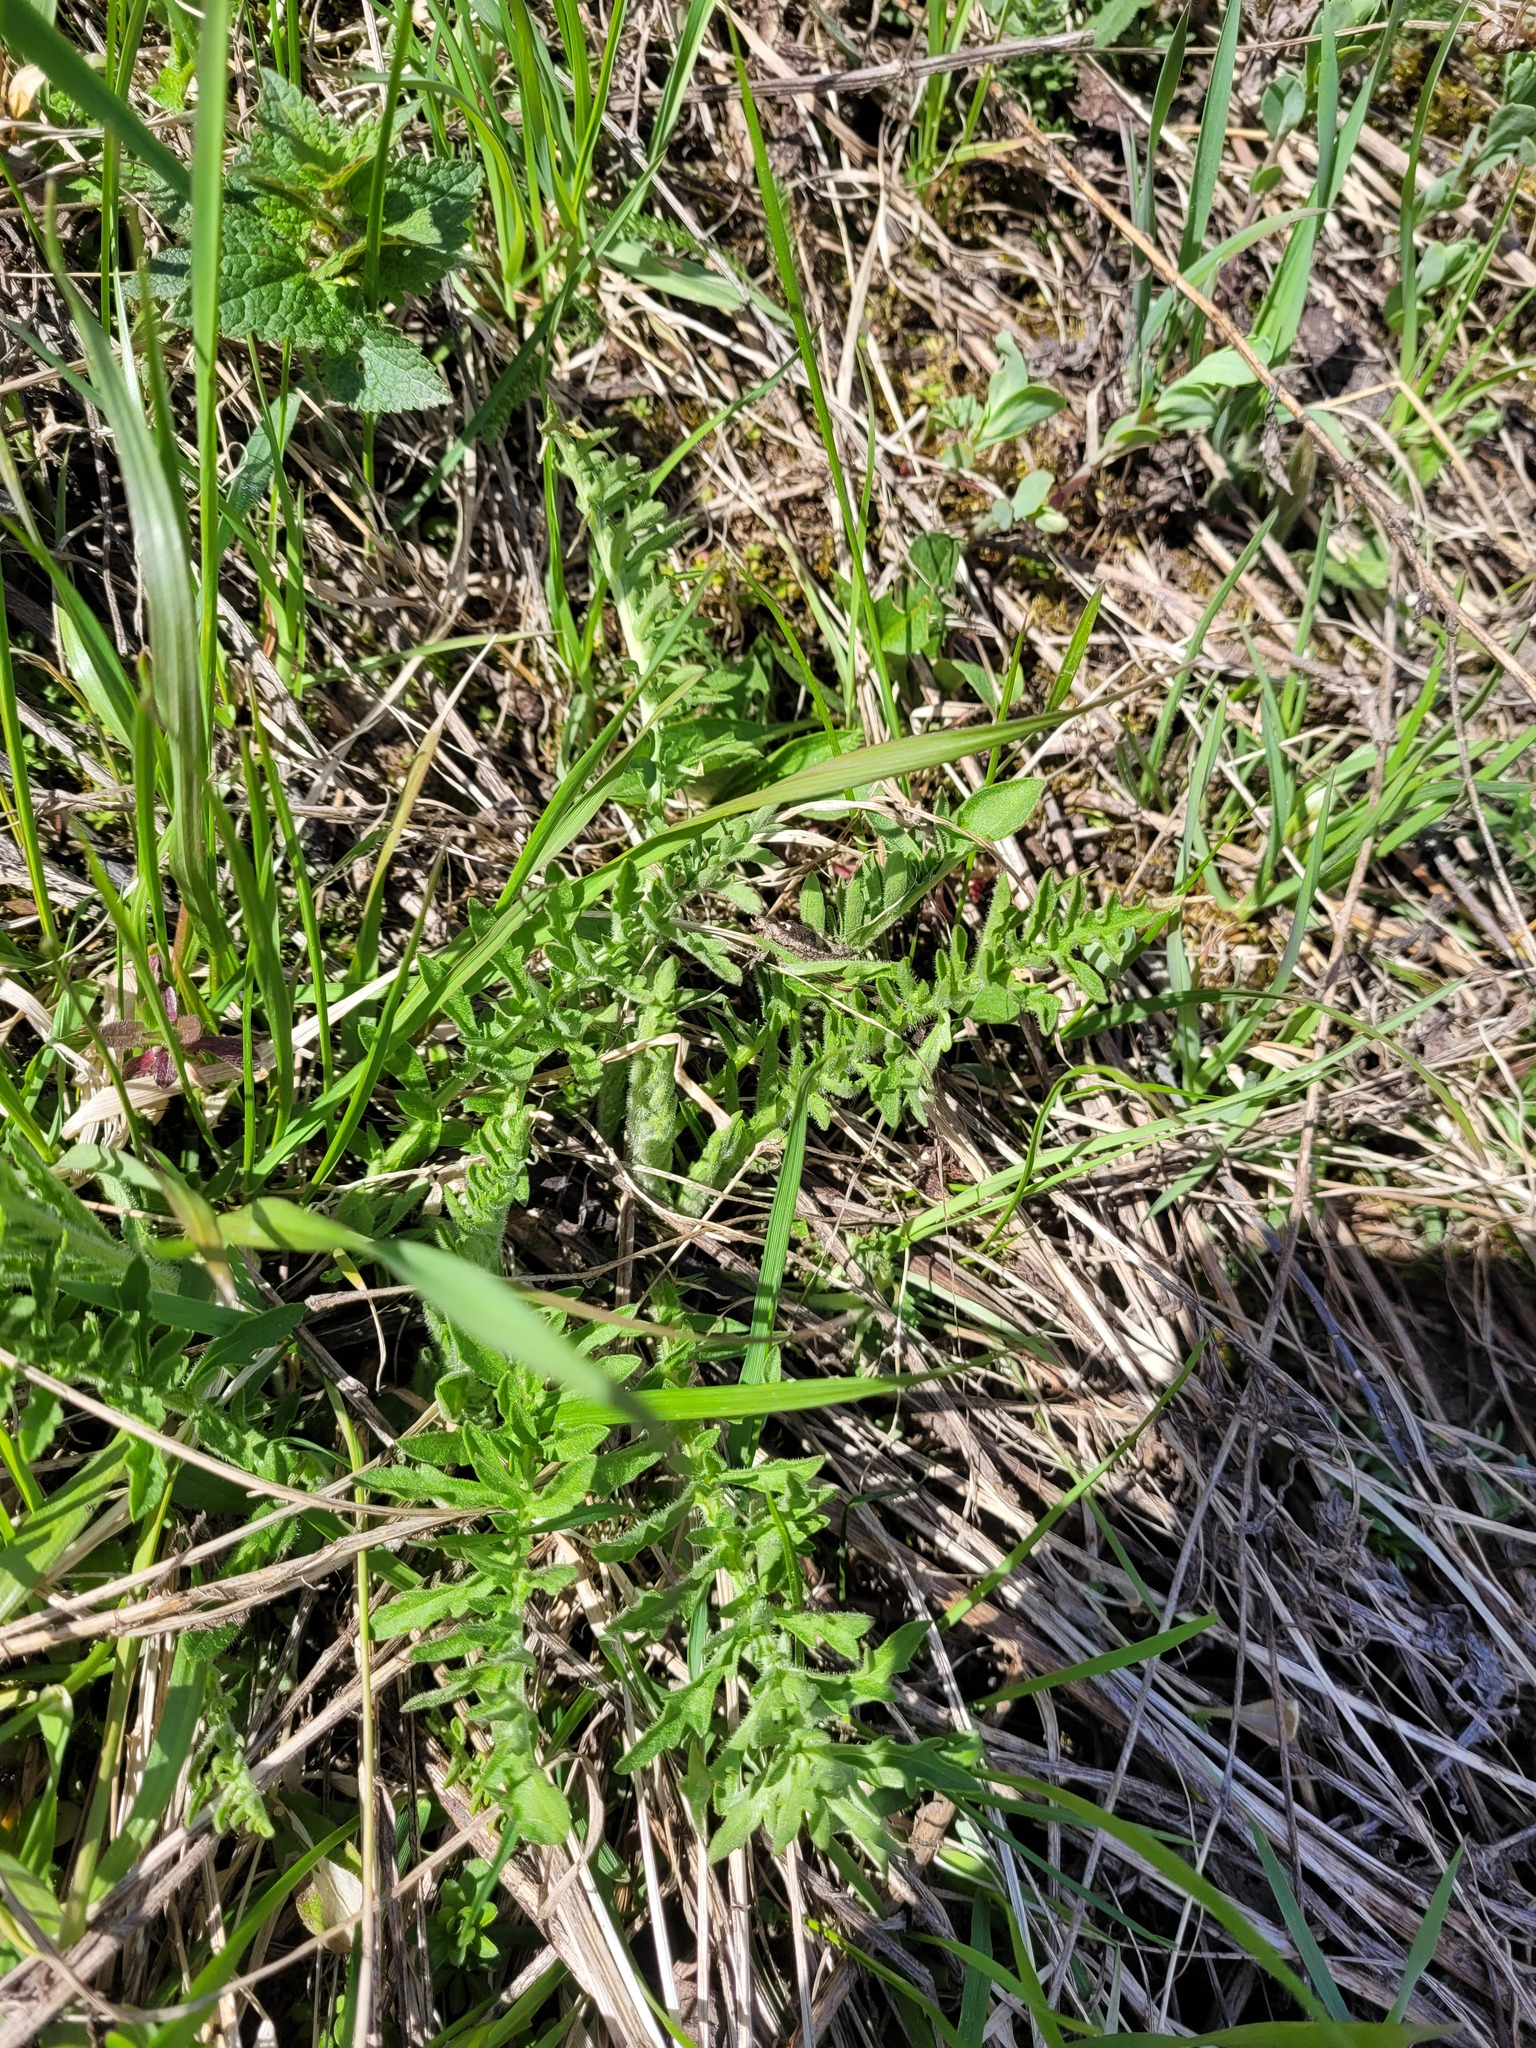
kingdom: Plantae
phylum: Tracheophyta
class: Magnoliopsida
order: Asterales
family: Asteraceae
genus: Centaurea
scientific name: Centaurea scabiosa
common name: Greater knapweed
